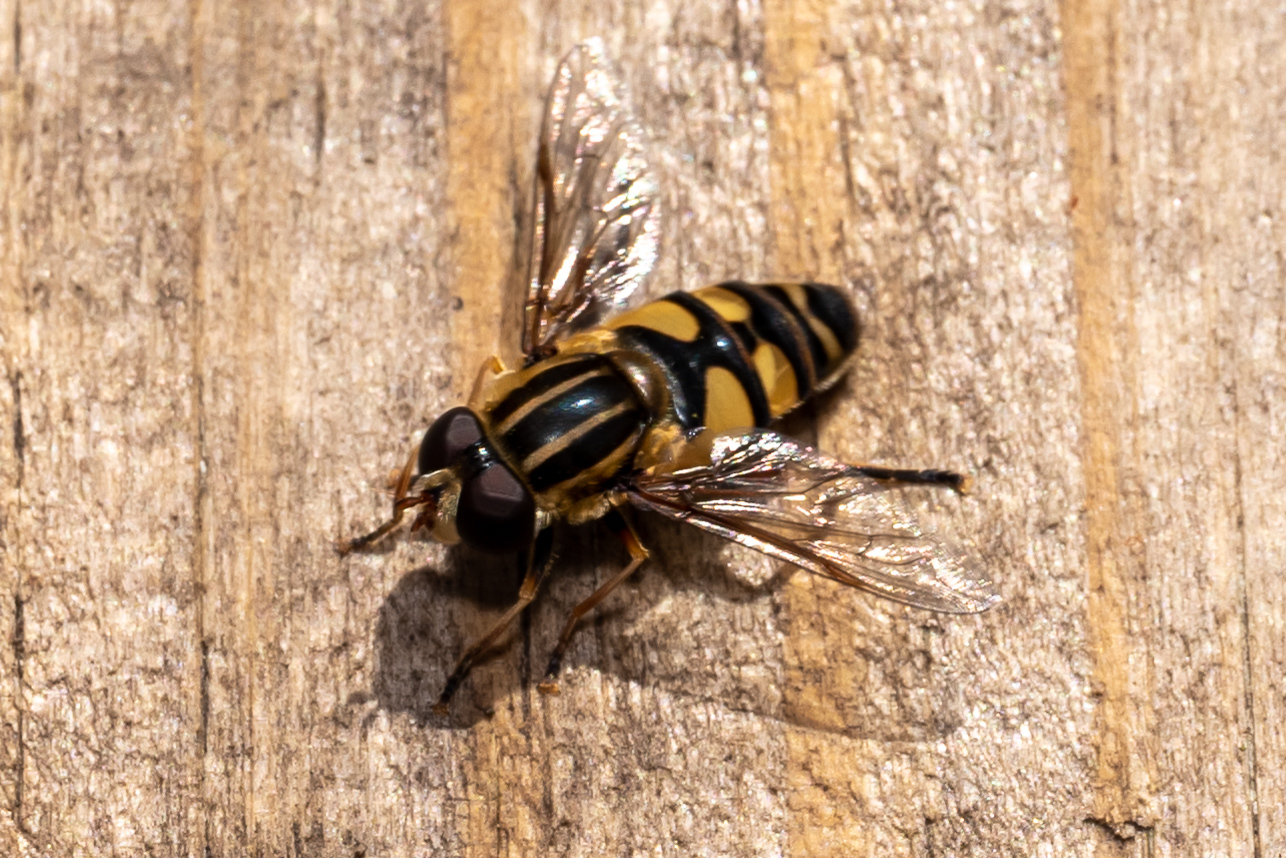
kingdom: Animalia
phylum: Arthropoda
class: Insecta
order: Diptera
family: Syrphidae
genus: Helophilus
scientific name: Helophilus fasciatus
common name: Narrow-headed marsh fly
